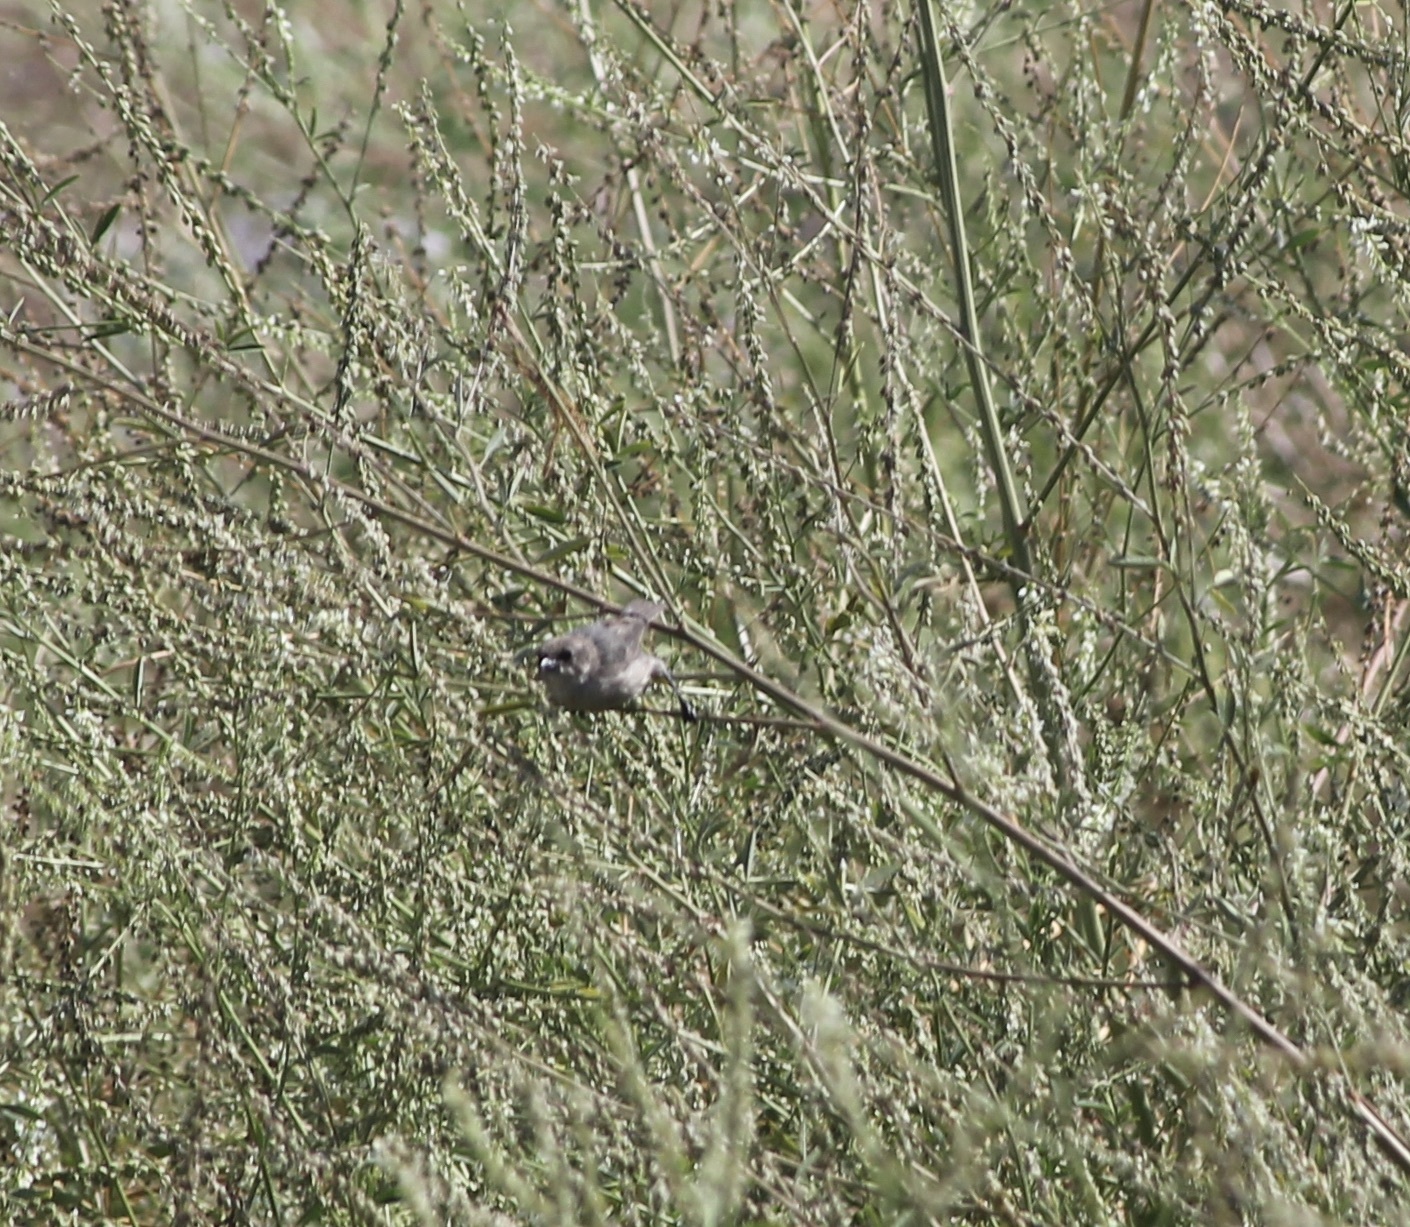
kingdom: Animalia
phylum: Chordata
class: Aves
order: Passeriformes
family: Aegithalidae
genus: Psaltriparus
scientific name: Psaltriparus minimus
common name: American bushtit
